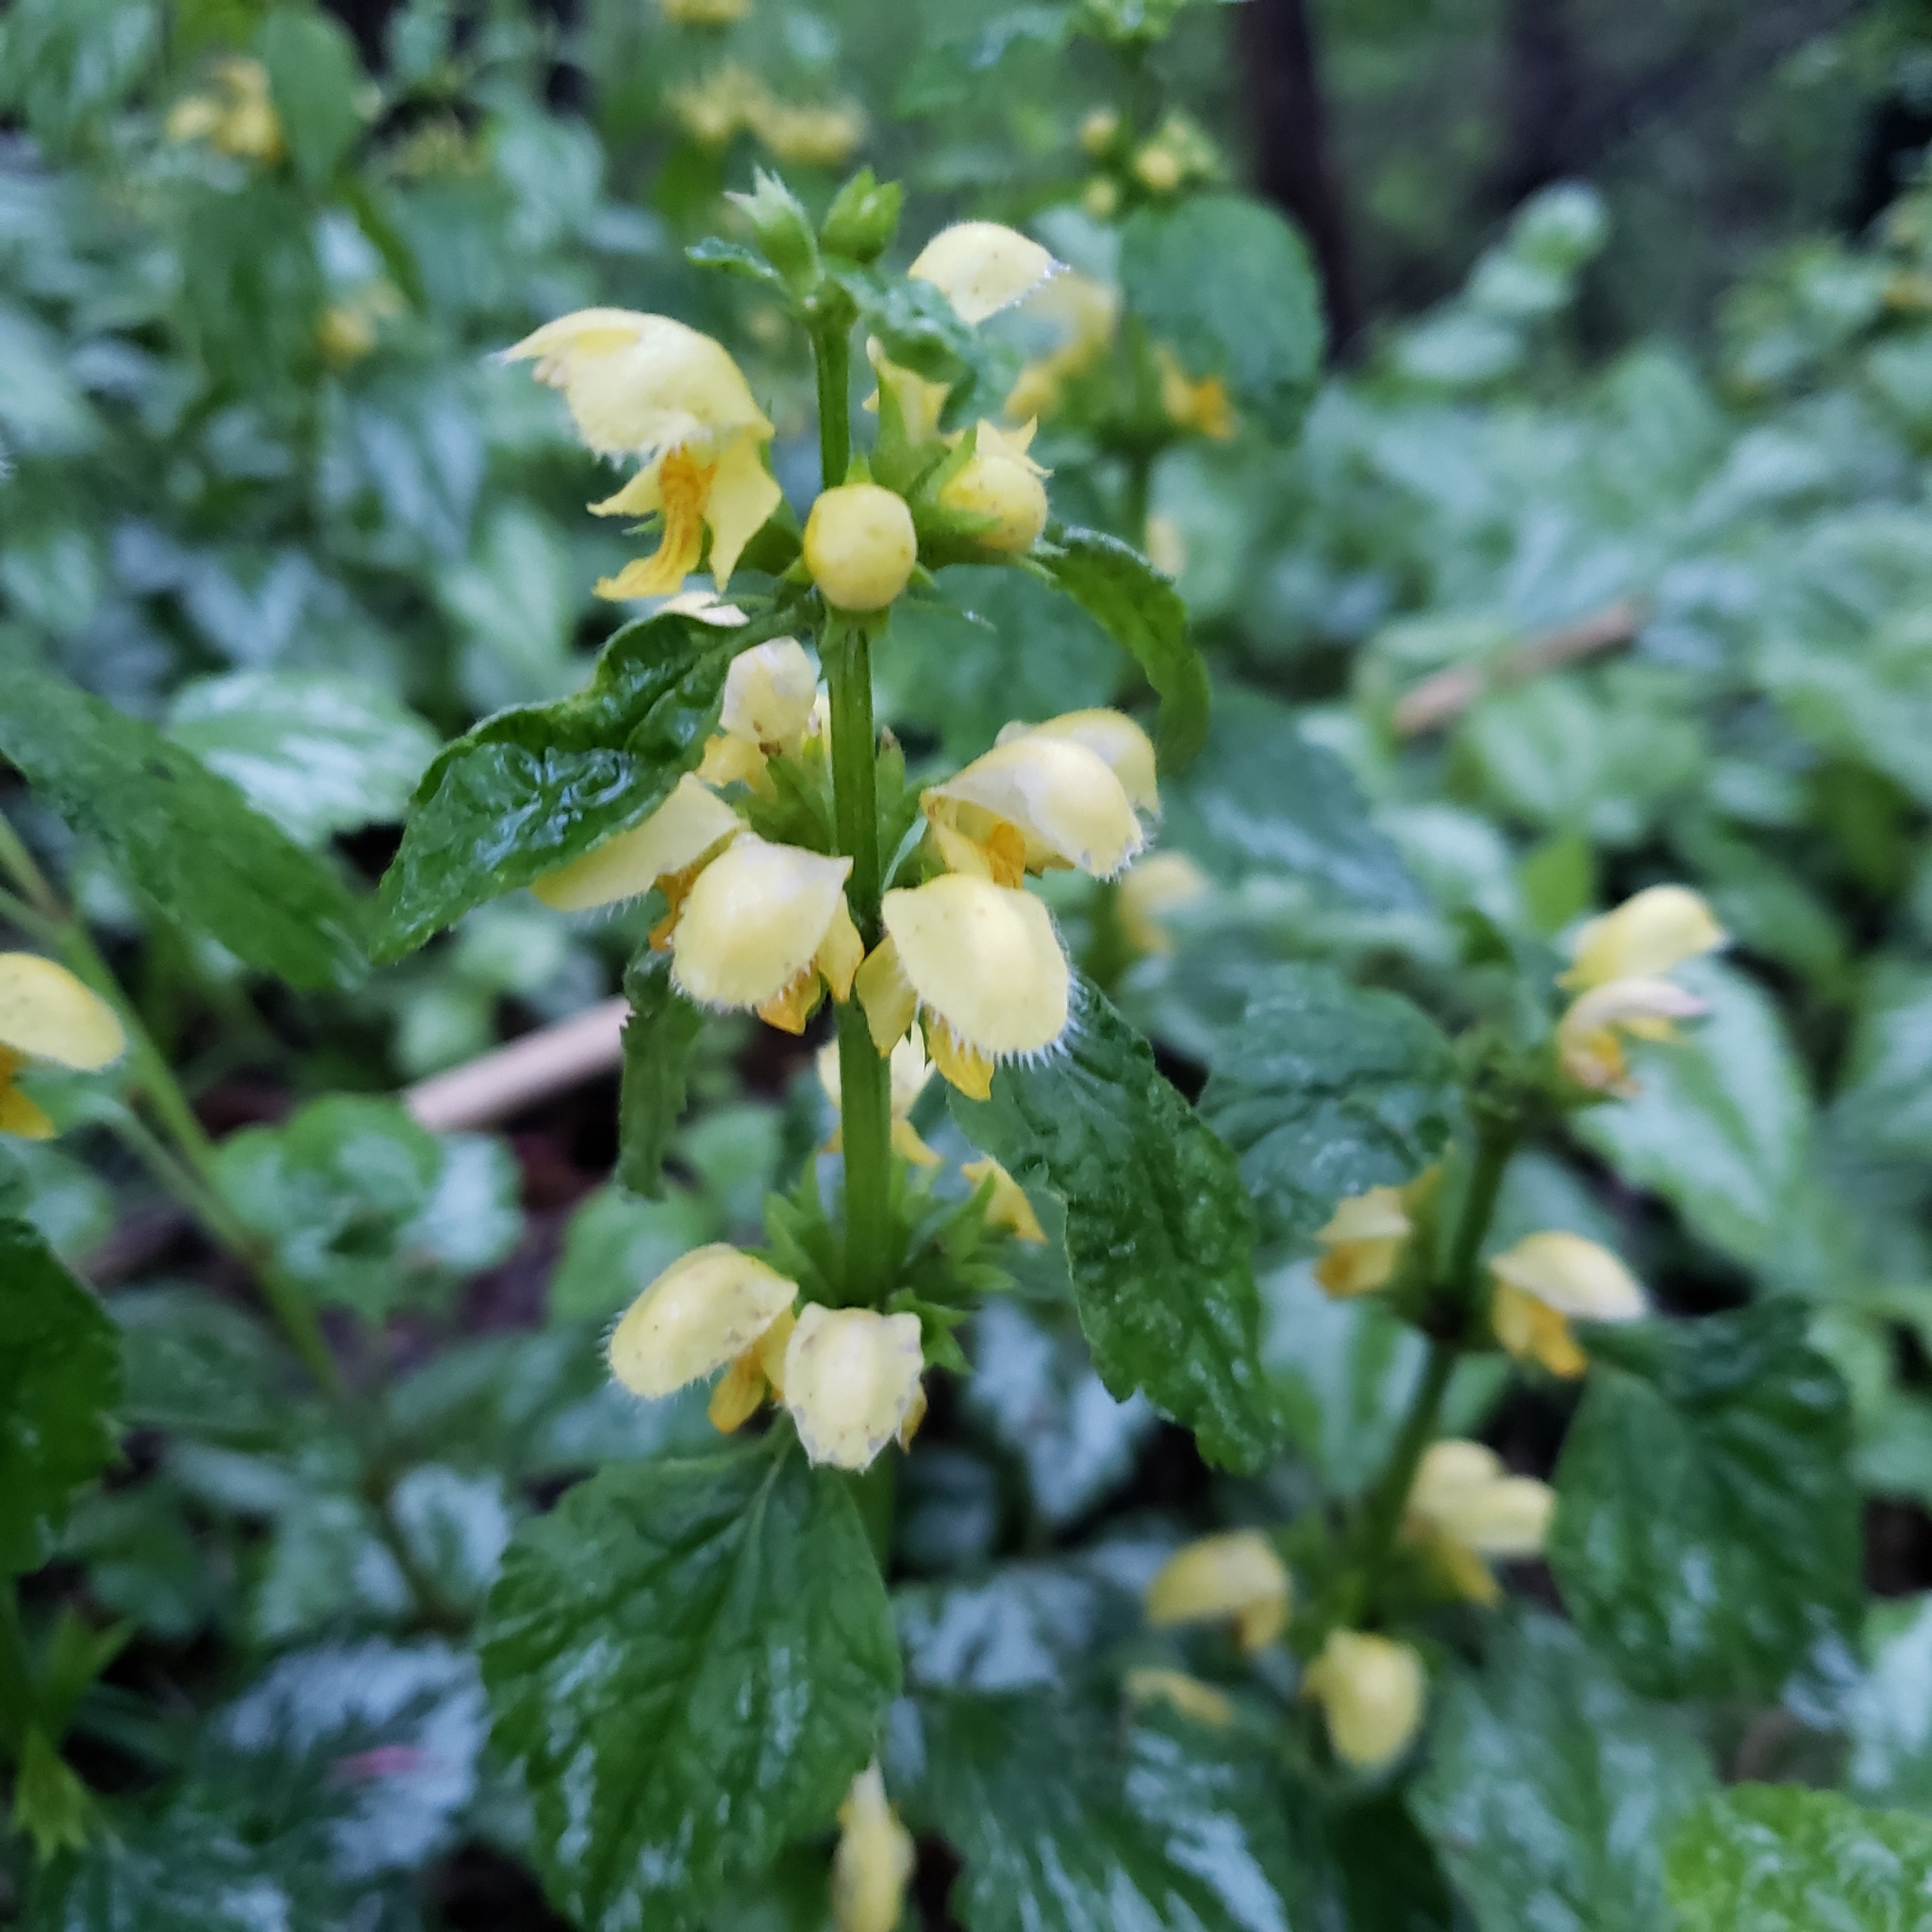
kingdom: Plantae
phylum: Tracheophyta
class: Magnoliopsida
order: Lamiales
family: Lamiaceae
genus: Lamium
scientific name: Lamium galeobdolon
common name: Yellow archangel
